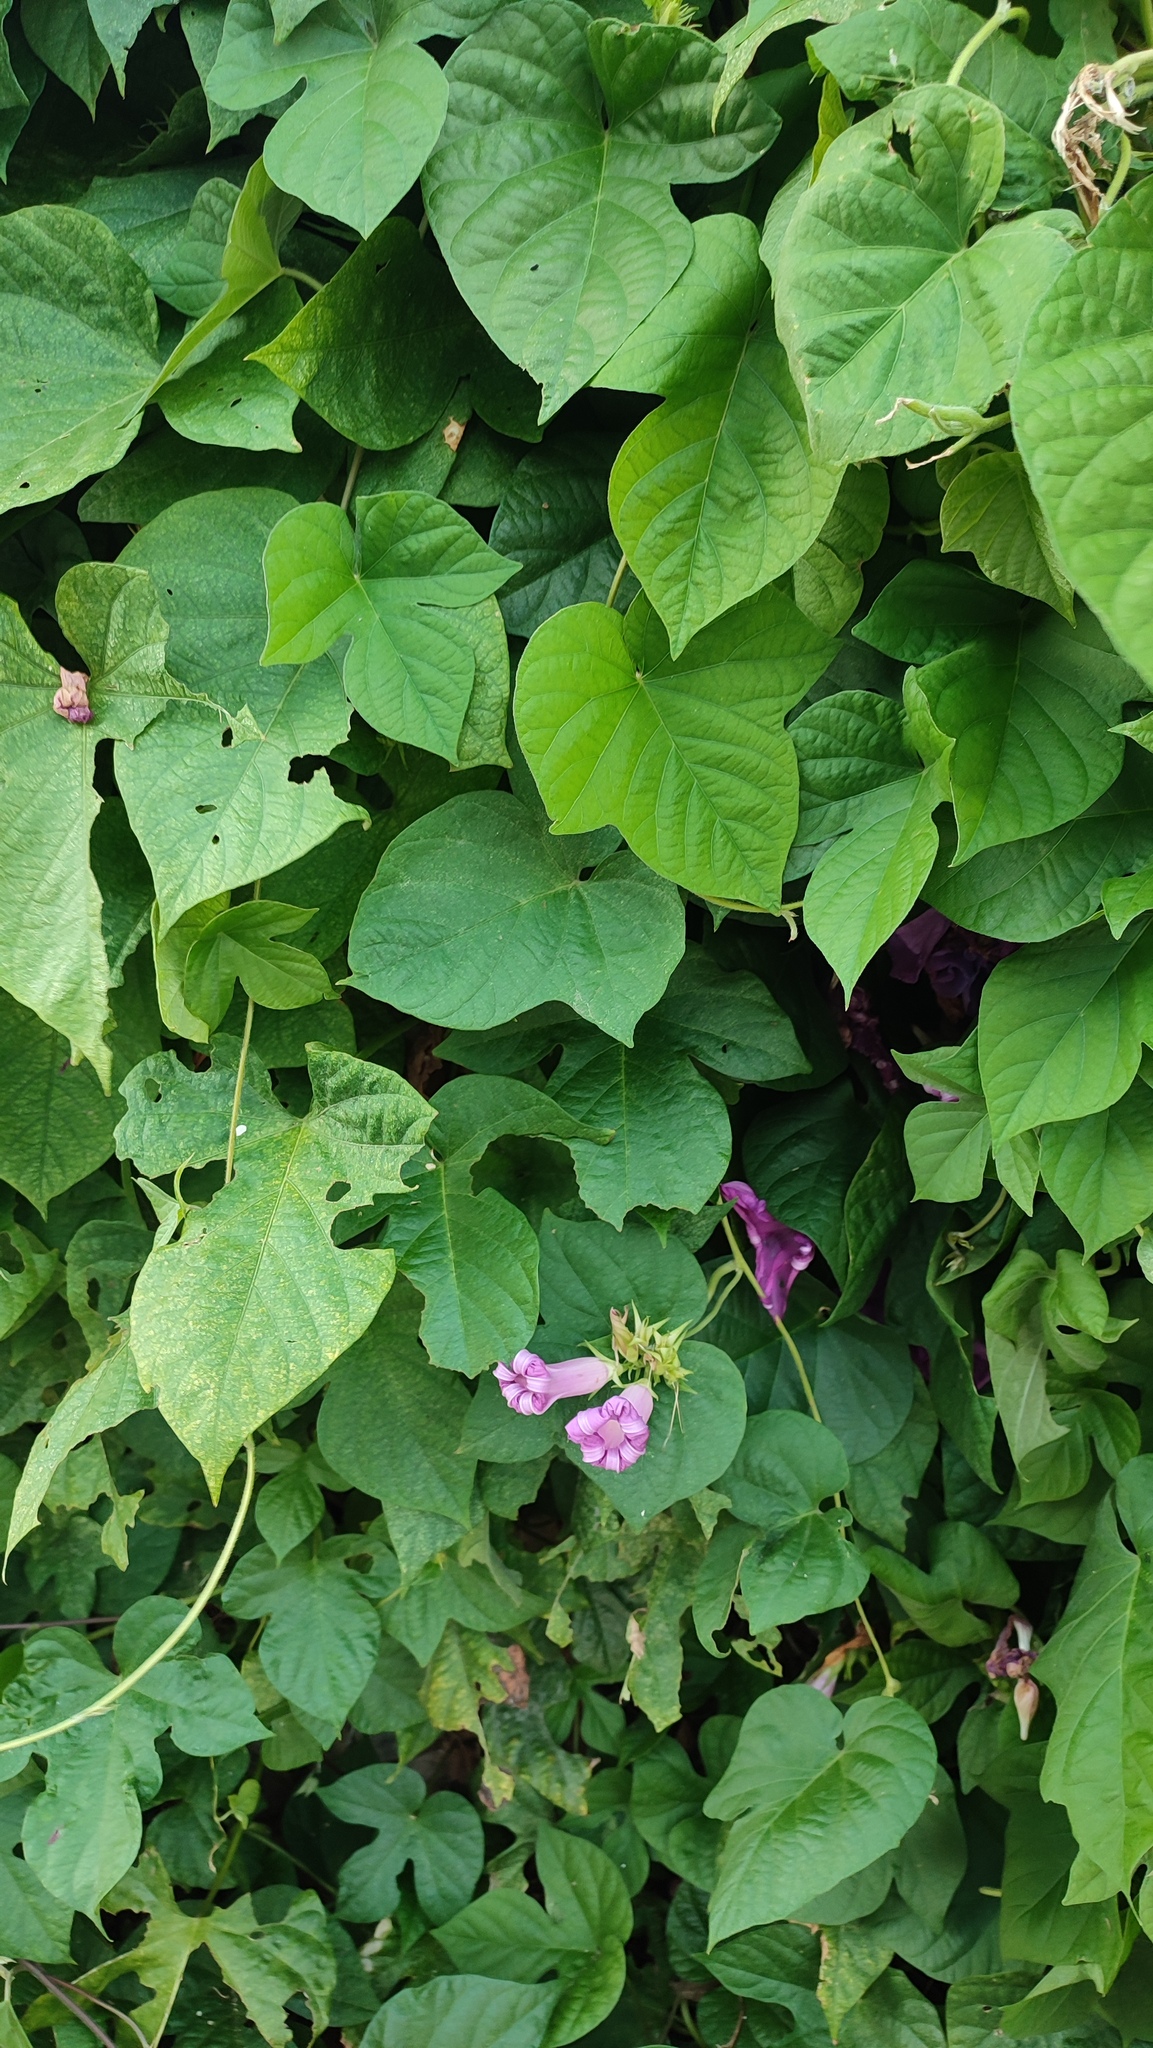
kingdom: Plantae
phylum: Tracheophyta
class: Magnoliopsida
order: Solanales
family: Convolvulaceae
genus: Ipomoea
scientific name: Ipomoea indica
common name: Blue dawnflower
